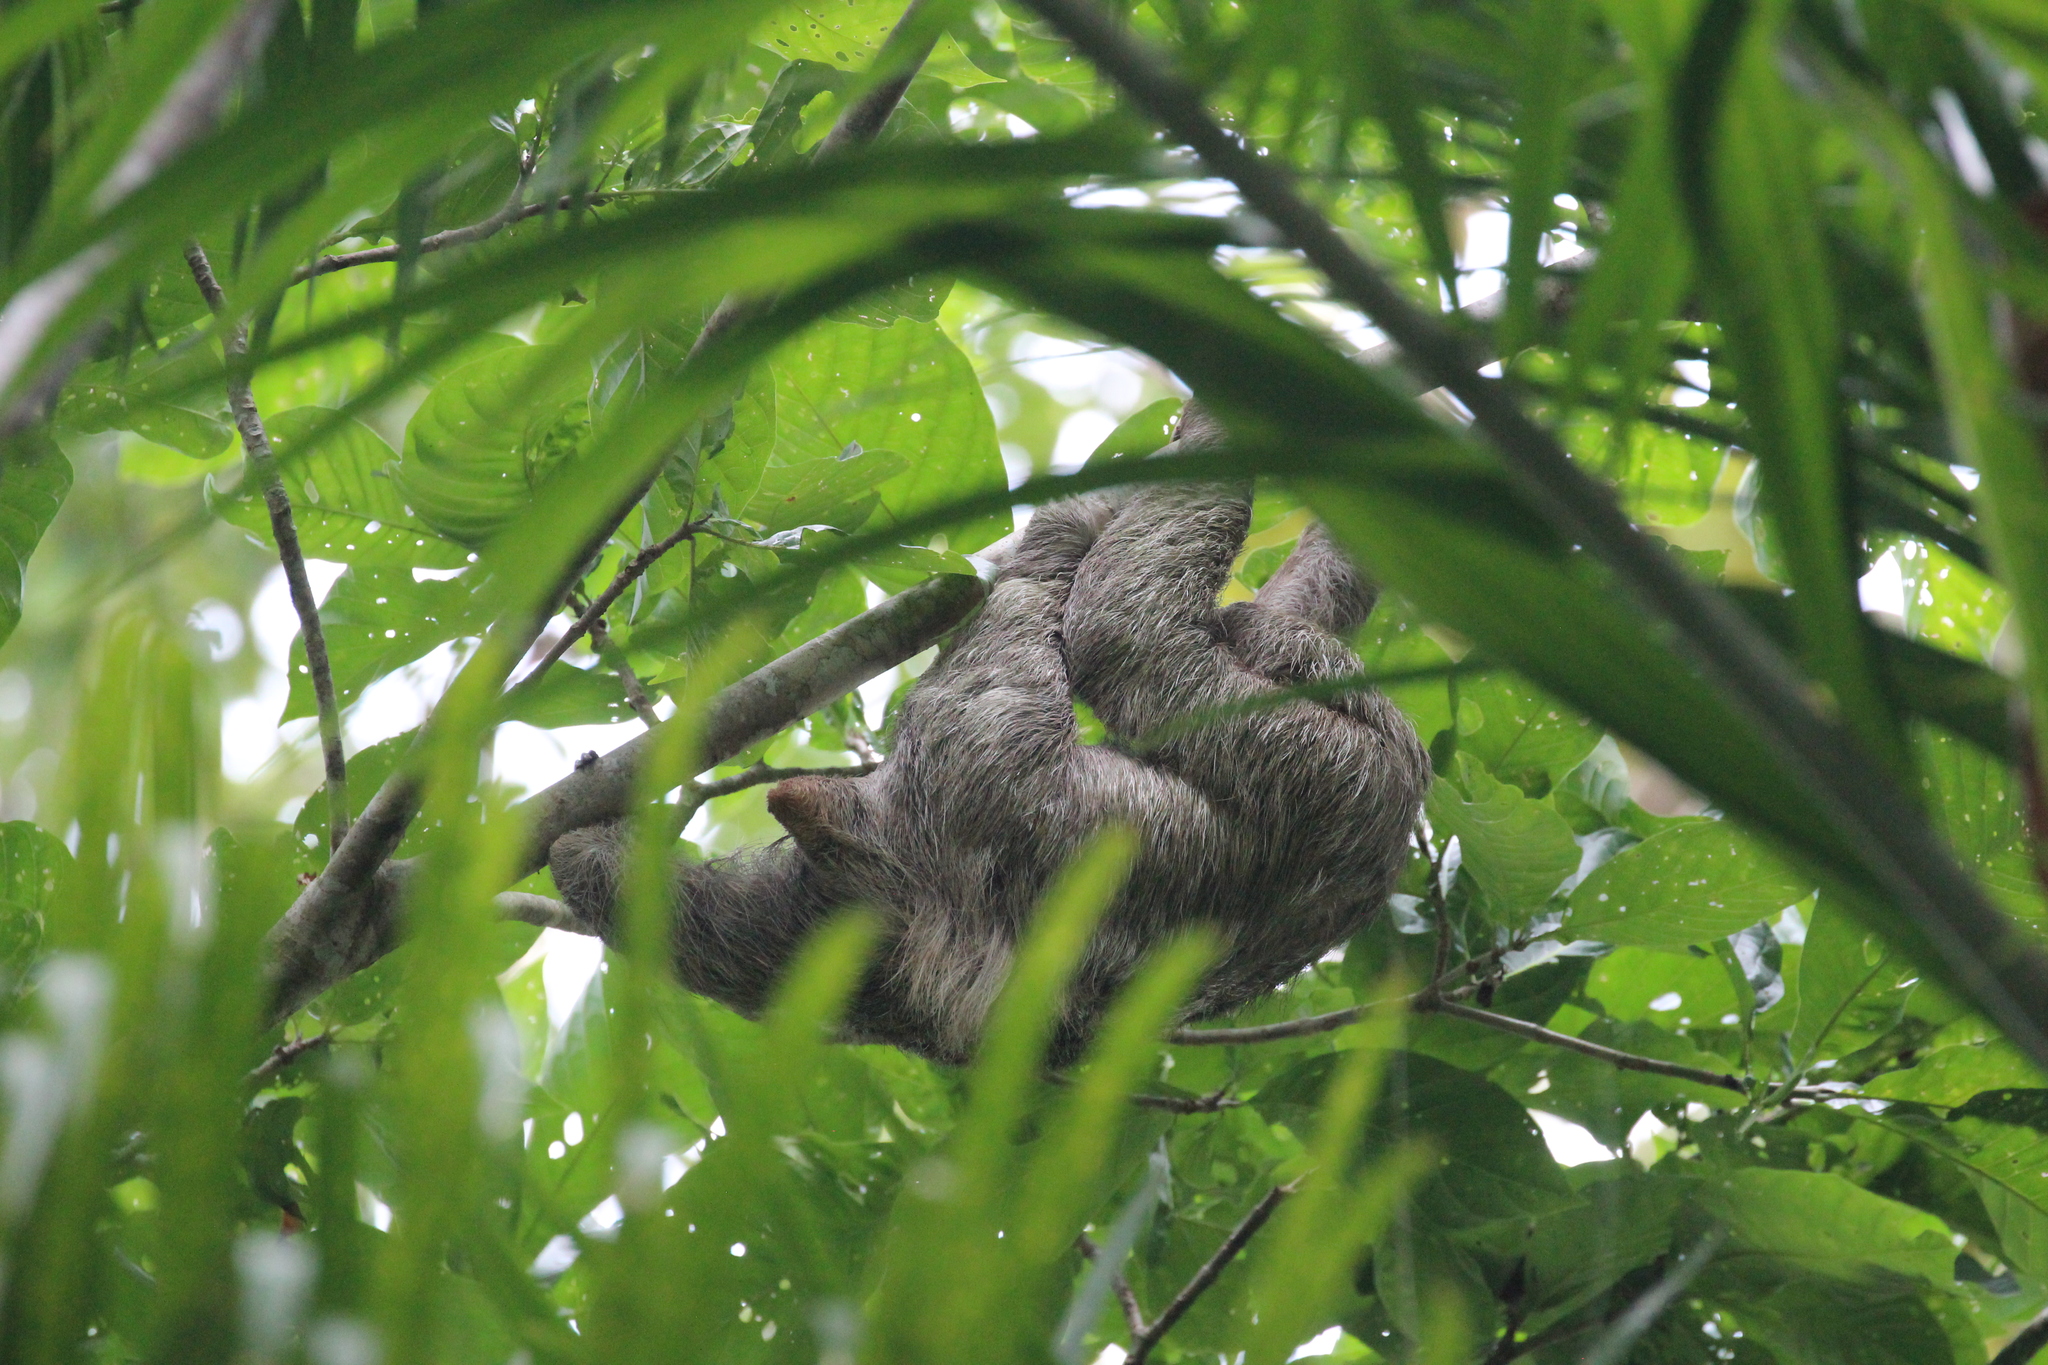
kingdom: Animalia
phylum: Chordata
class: Mammalia
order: Pilosa
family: Bradypodidae
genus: Bradypus
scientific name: Bradypus variegatus
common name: Brown-throated three-toed sloth
